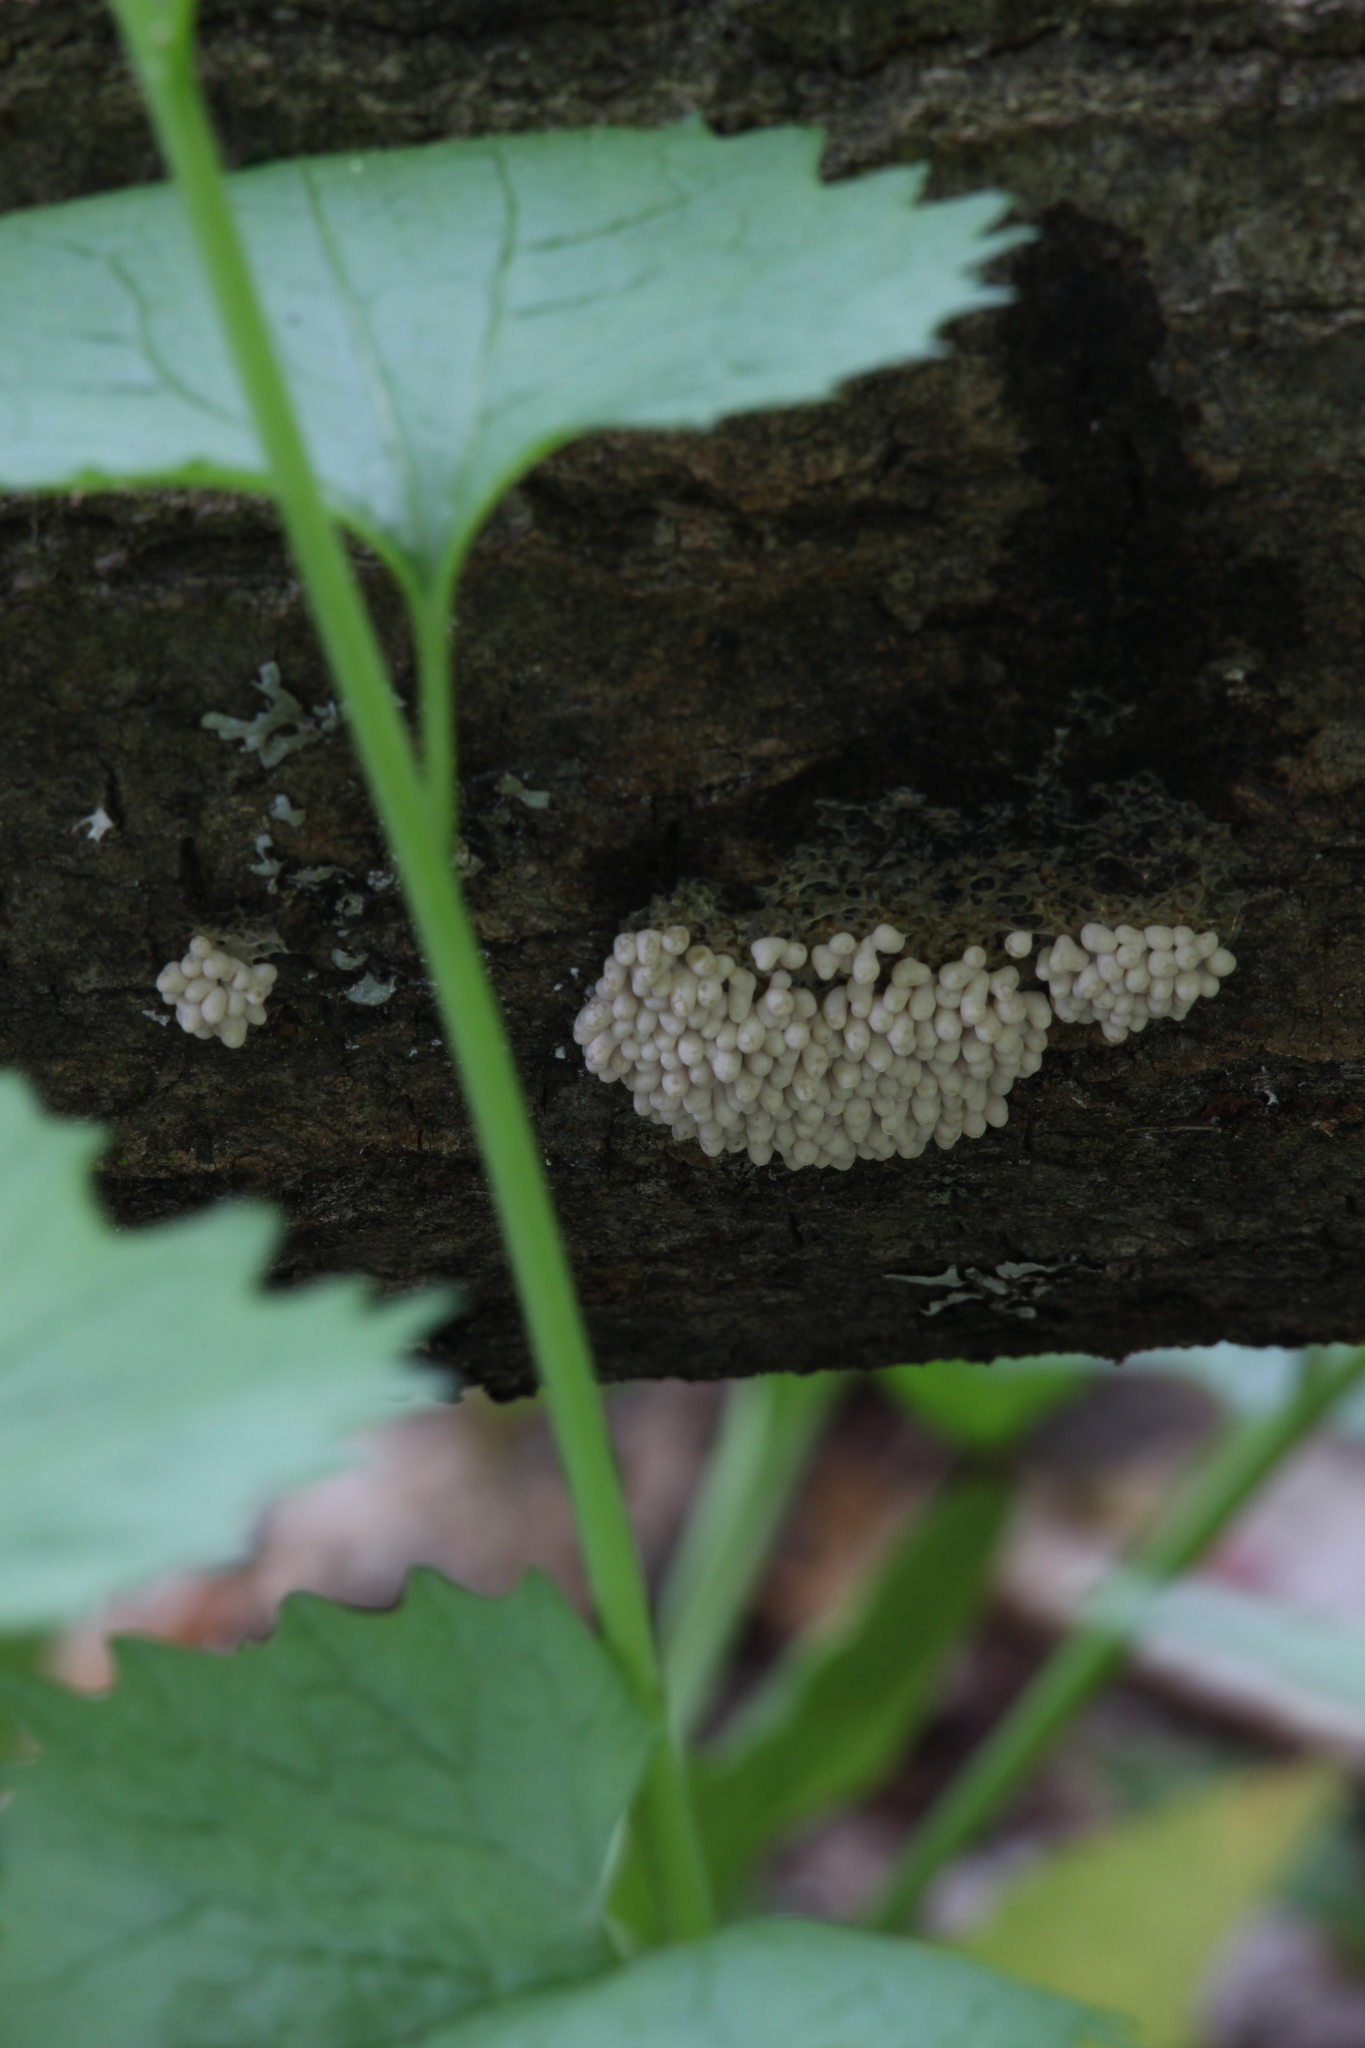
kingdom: Protozoa
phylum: Mycetozoa
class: Myxomycetes
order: Physarales
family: Physaraceae
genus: Physarum
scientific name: Physarum didermoides
